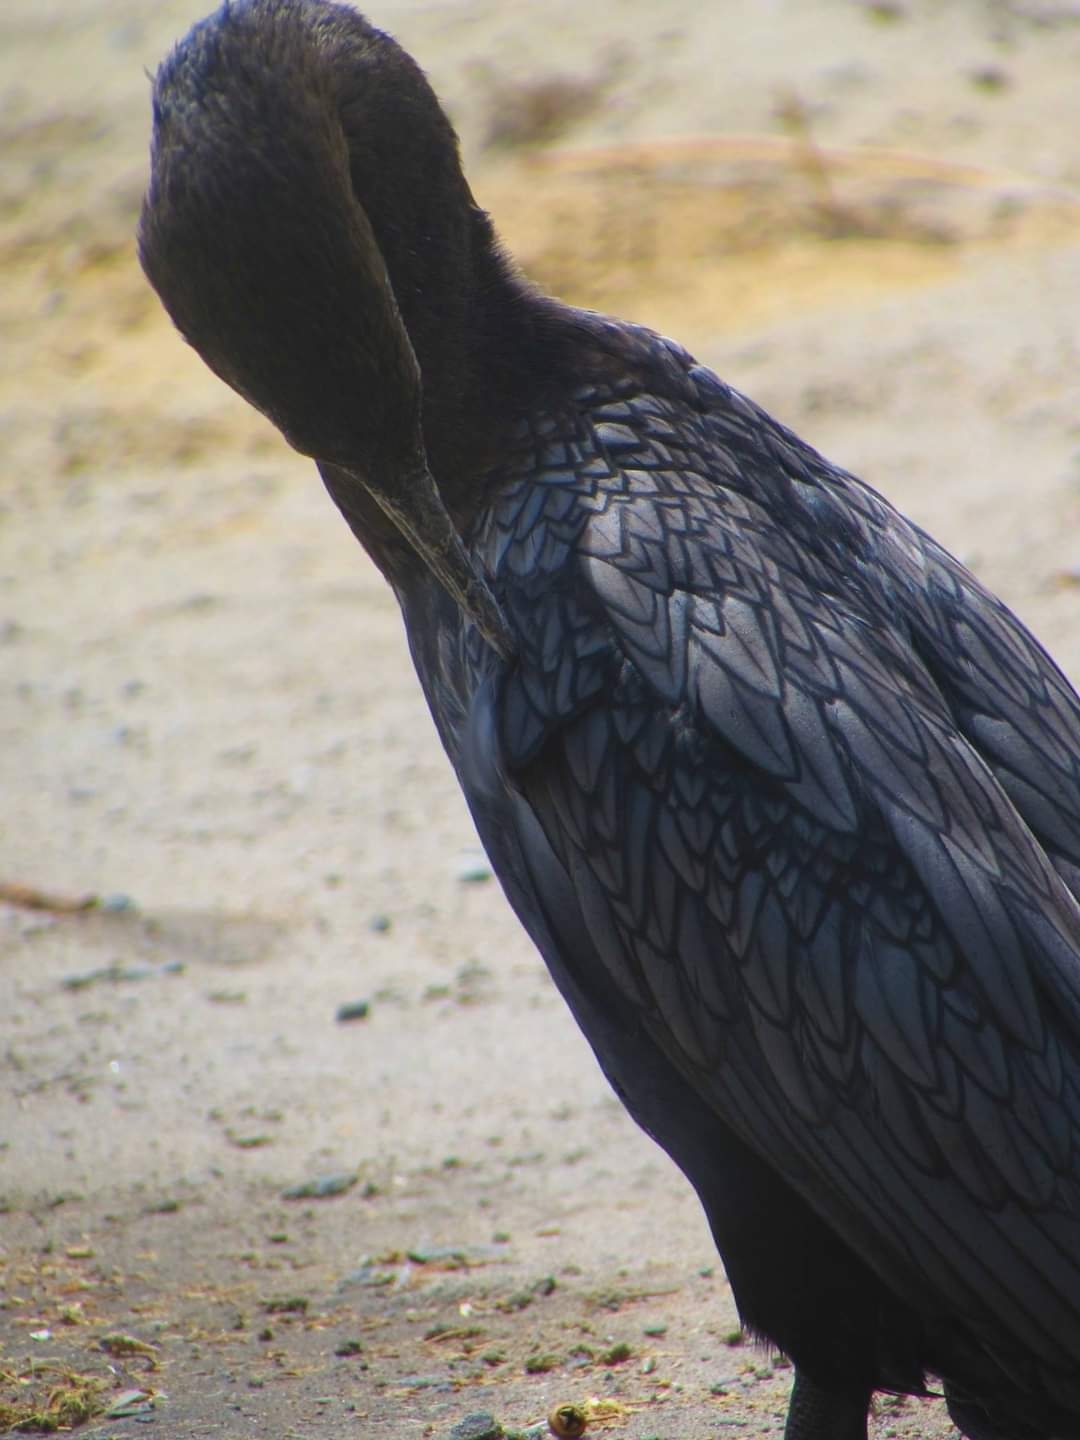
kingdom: Animalia
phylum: Chordata
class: Aves
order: Suliformes
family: Phalacrocoracidae
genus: Phalacrocorax
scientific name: Phalacrocorax brasilianus
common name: Neotropic cormorant
